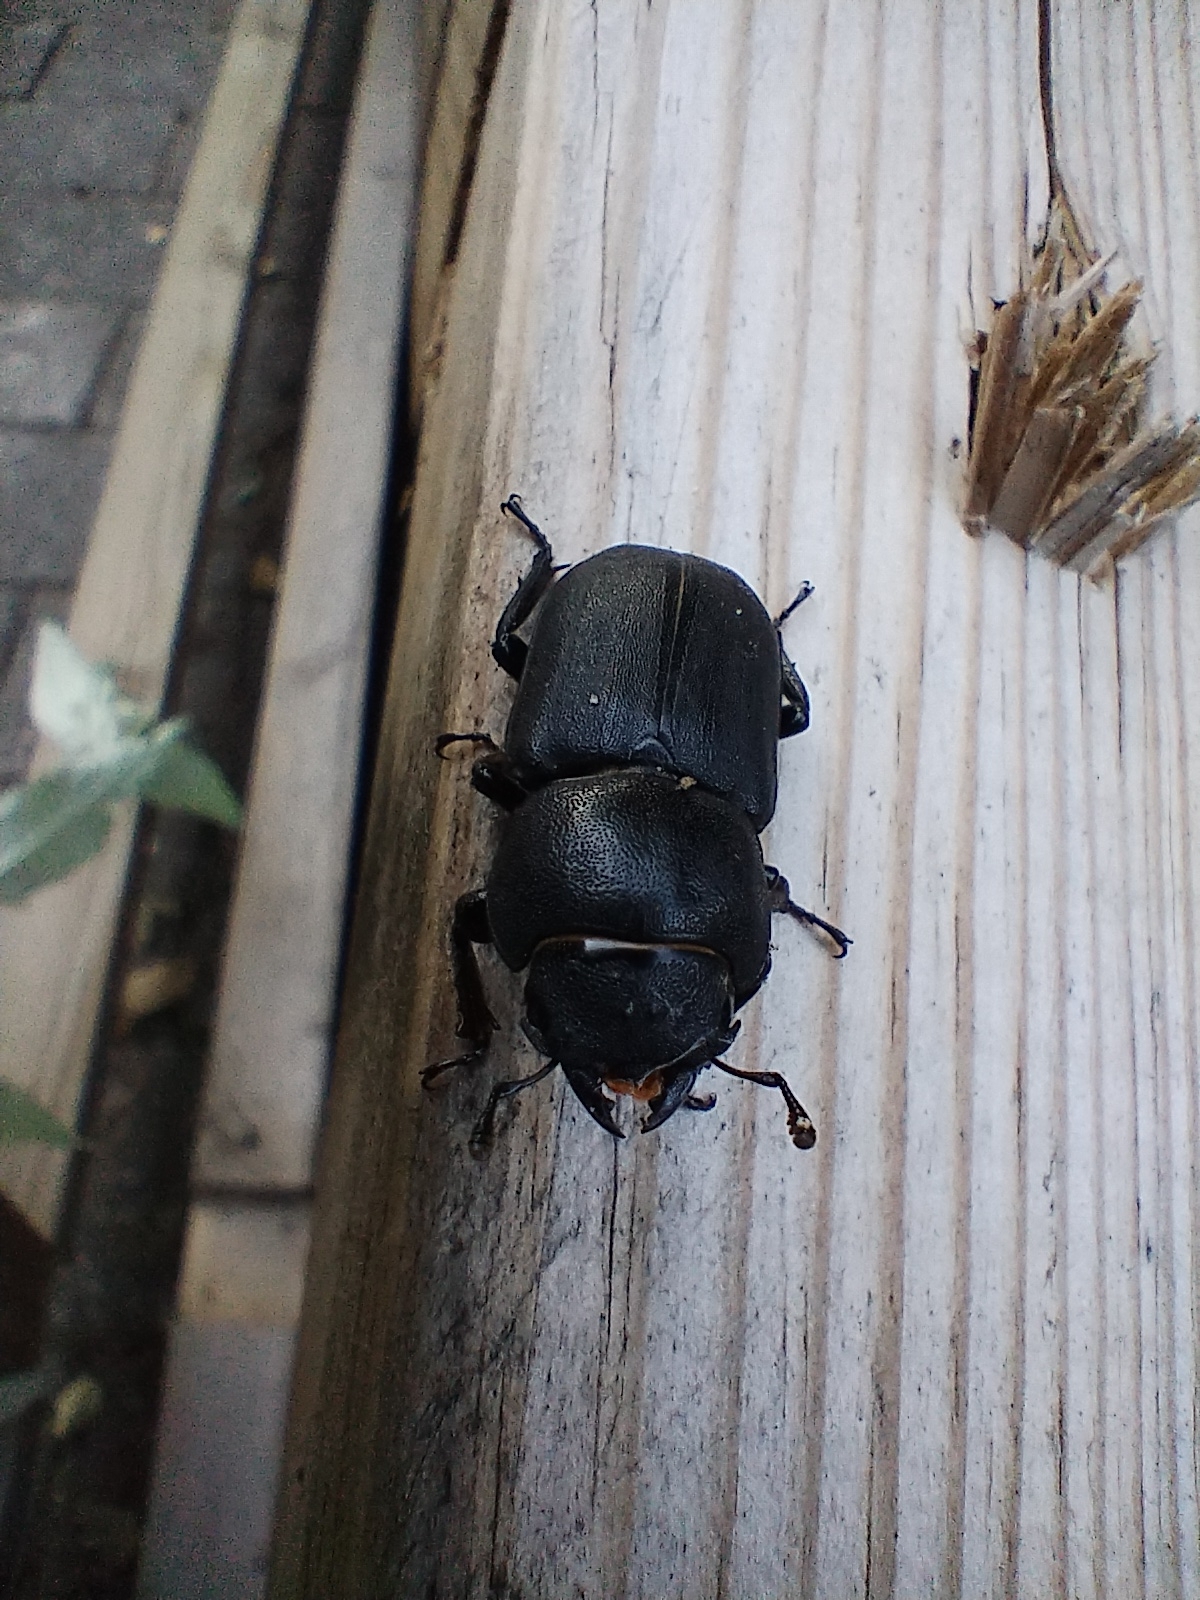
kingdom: Animalia
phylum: Arthropoda
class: Insecta
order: Coleoptera
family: Lucanidae
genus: Dorcus
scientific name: Dorcus parallelipipedus
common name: Lesser stag beetle
